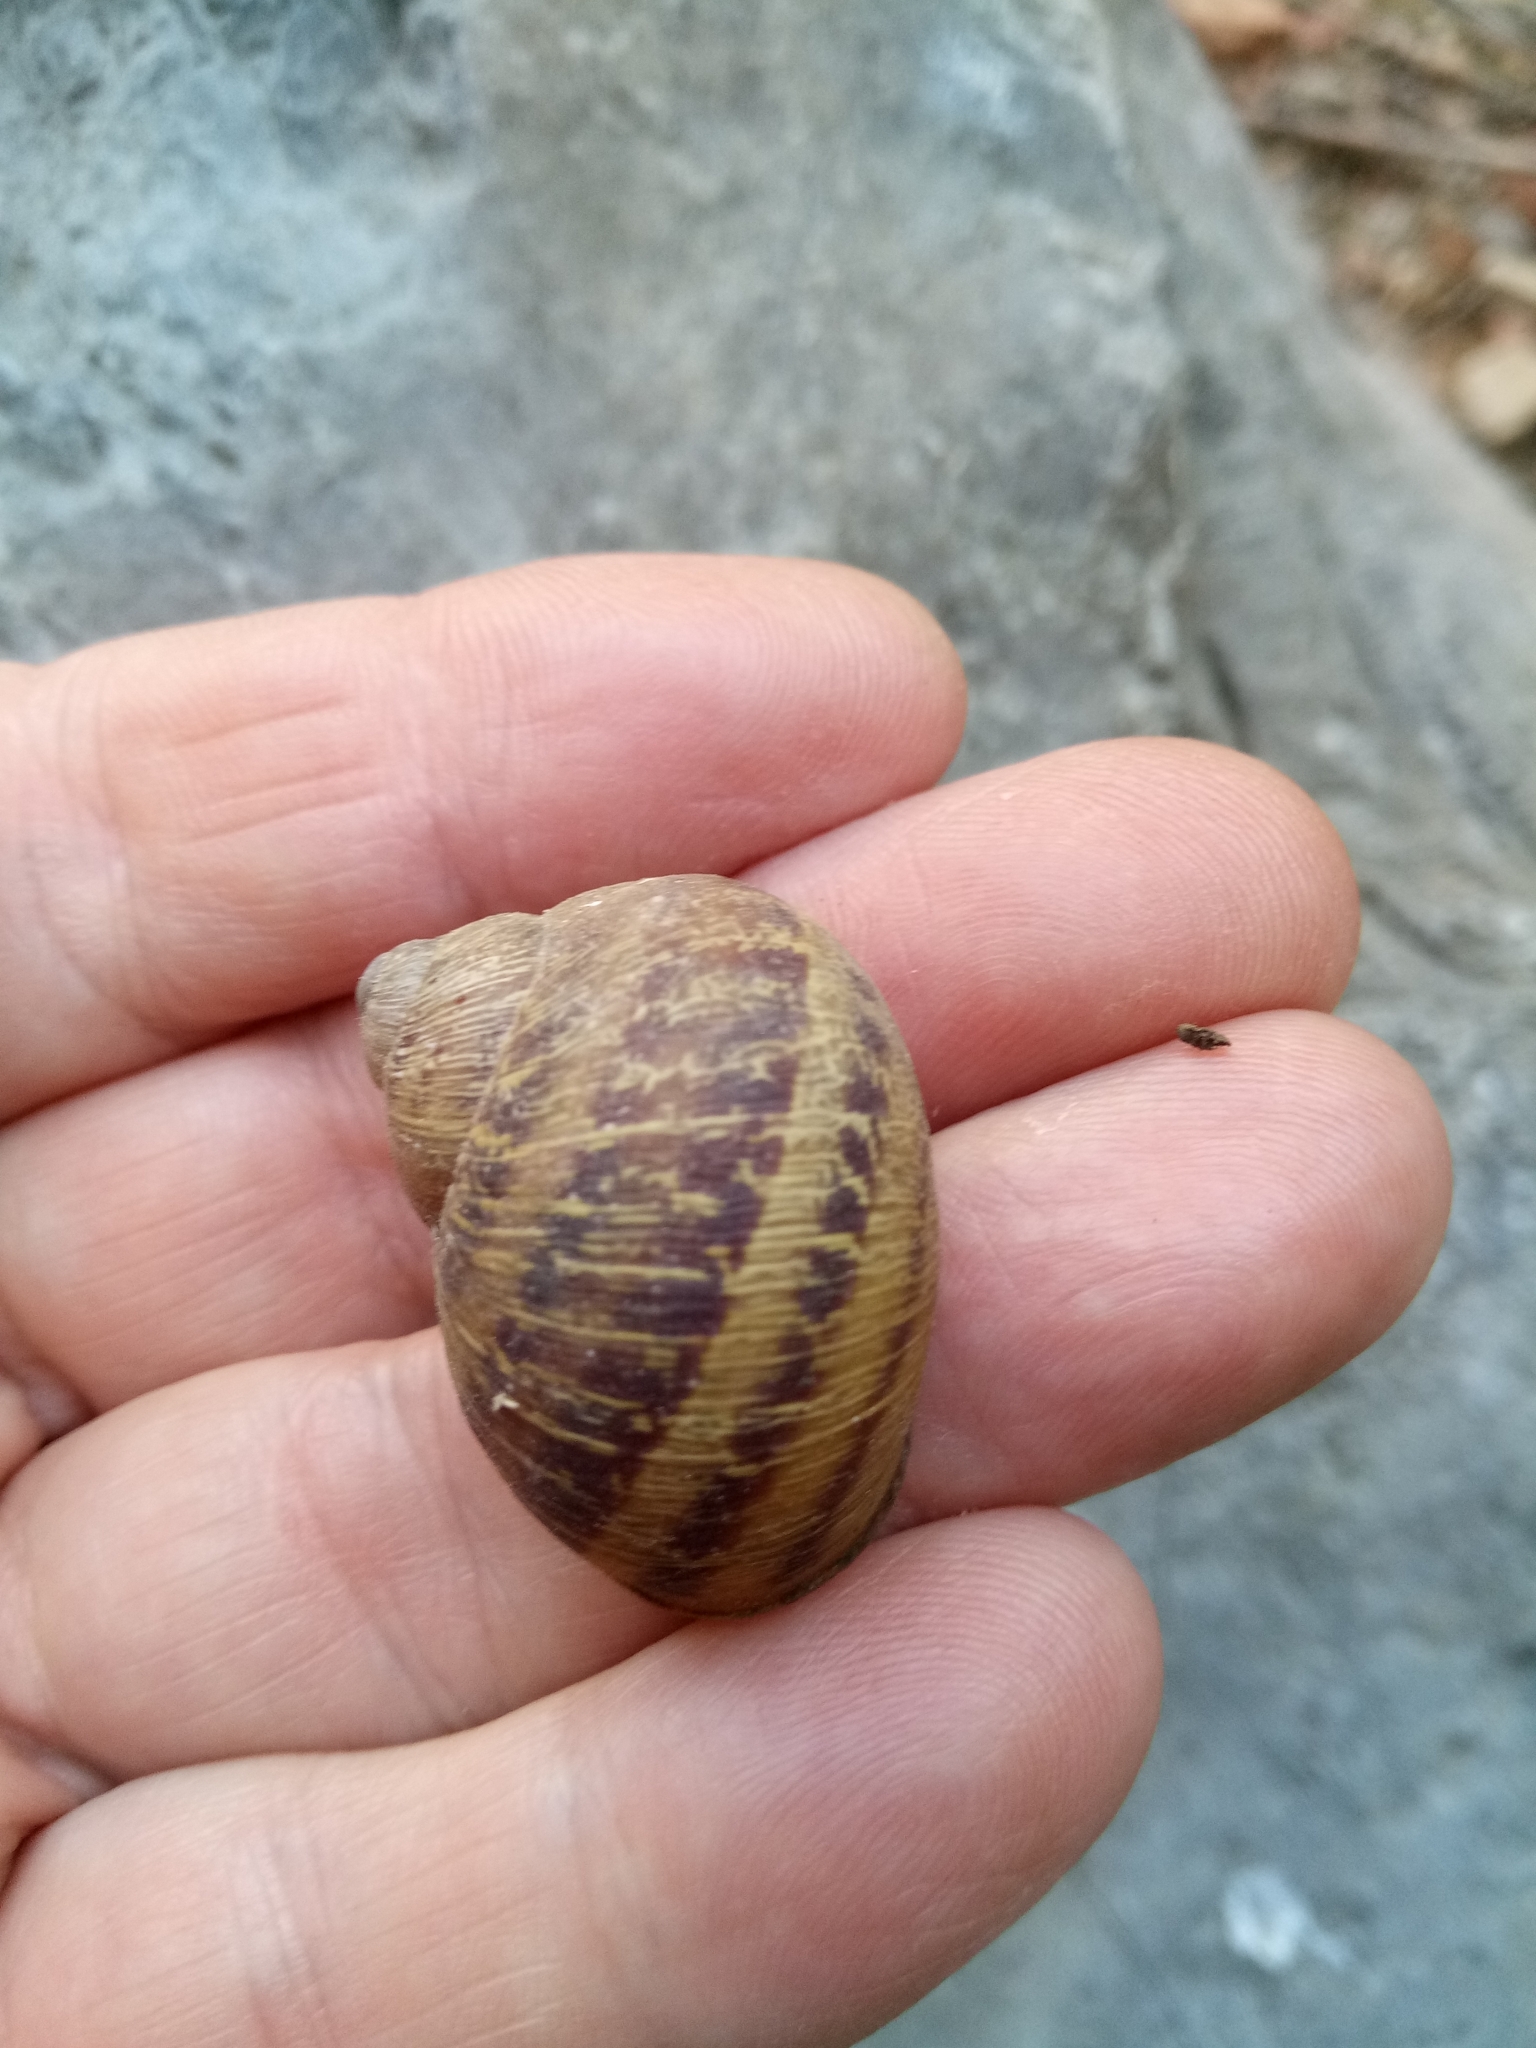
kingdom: Animalia
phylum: Mollusca
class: Gastropoda
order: Stylommatophora
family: Helicidae
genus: Cornu
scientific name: Cornu aspersum
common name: Brown garden snail
